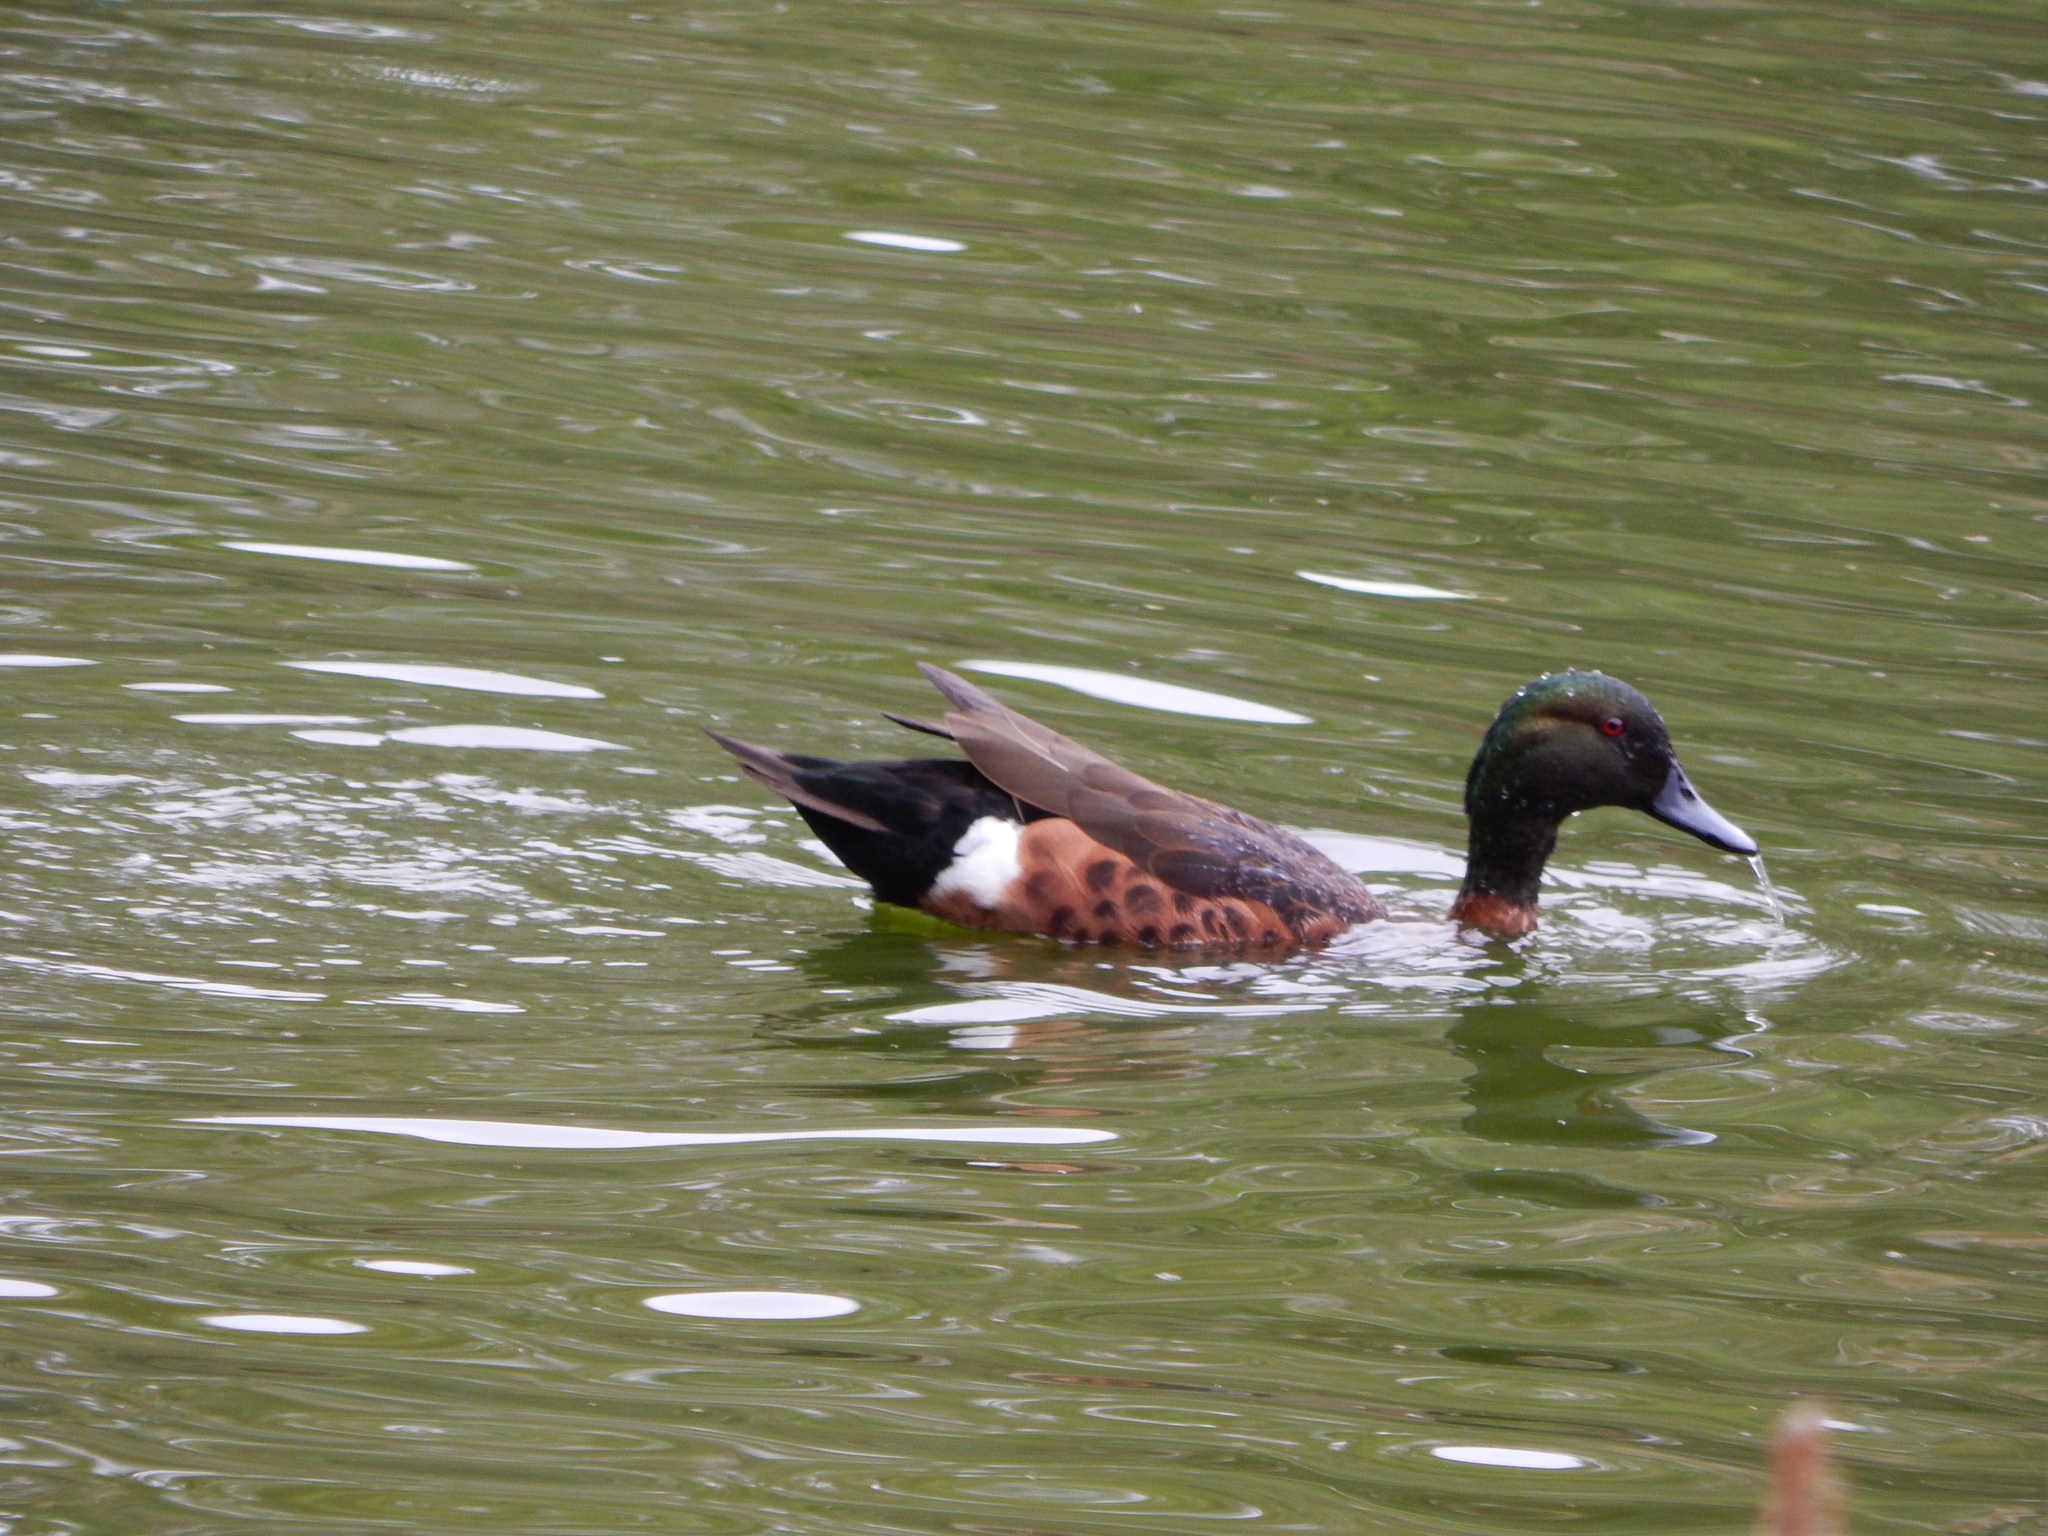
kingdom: Animalia
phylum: Chordata
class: Aves
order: Anseriformes
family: Anatidae
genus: Anas
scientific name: Anas castanea
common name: Chestnut teal
